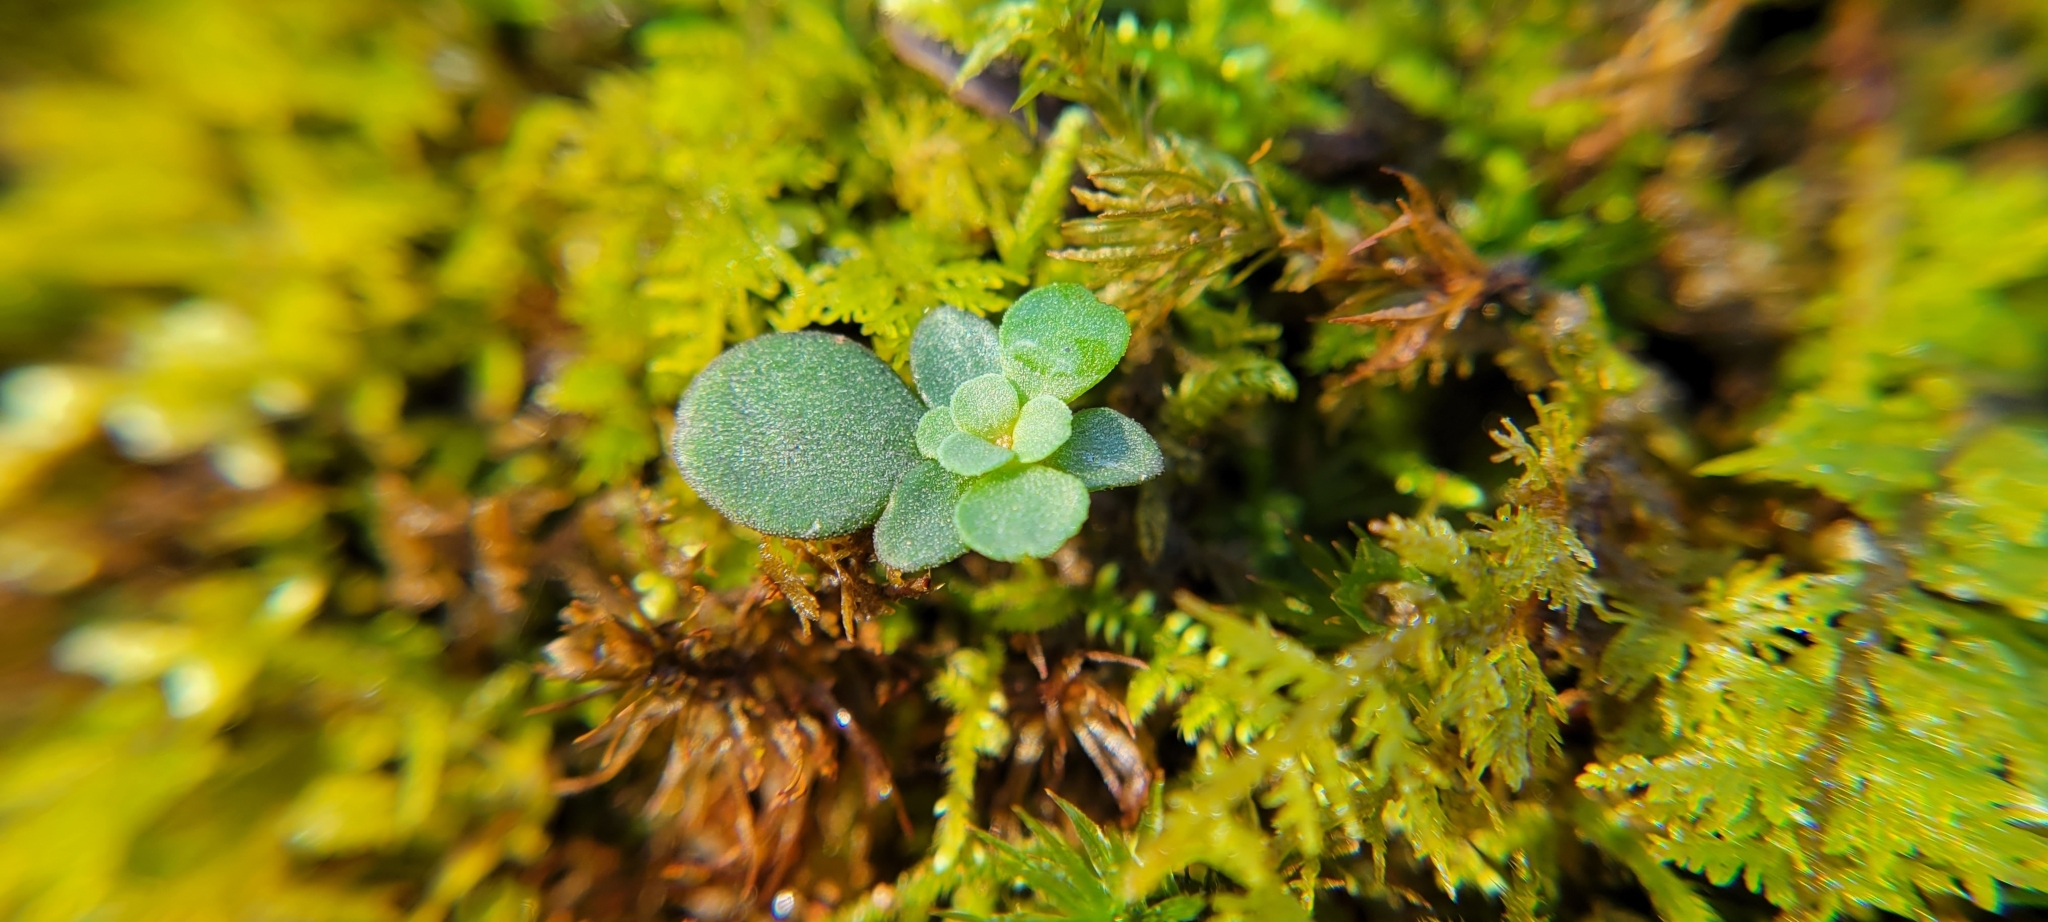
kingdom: Plantae
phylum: Tracheophyta
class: Magnoliopsida
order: Saxifragales
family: Crassulaceae
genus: Sedum
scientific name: Sedum ternatum
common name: Wild stonecrop
